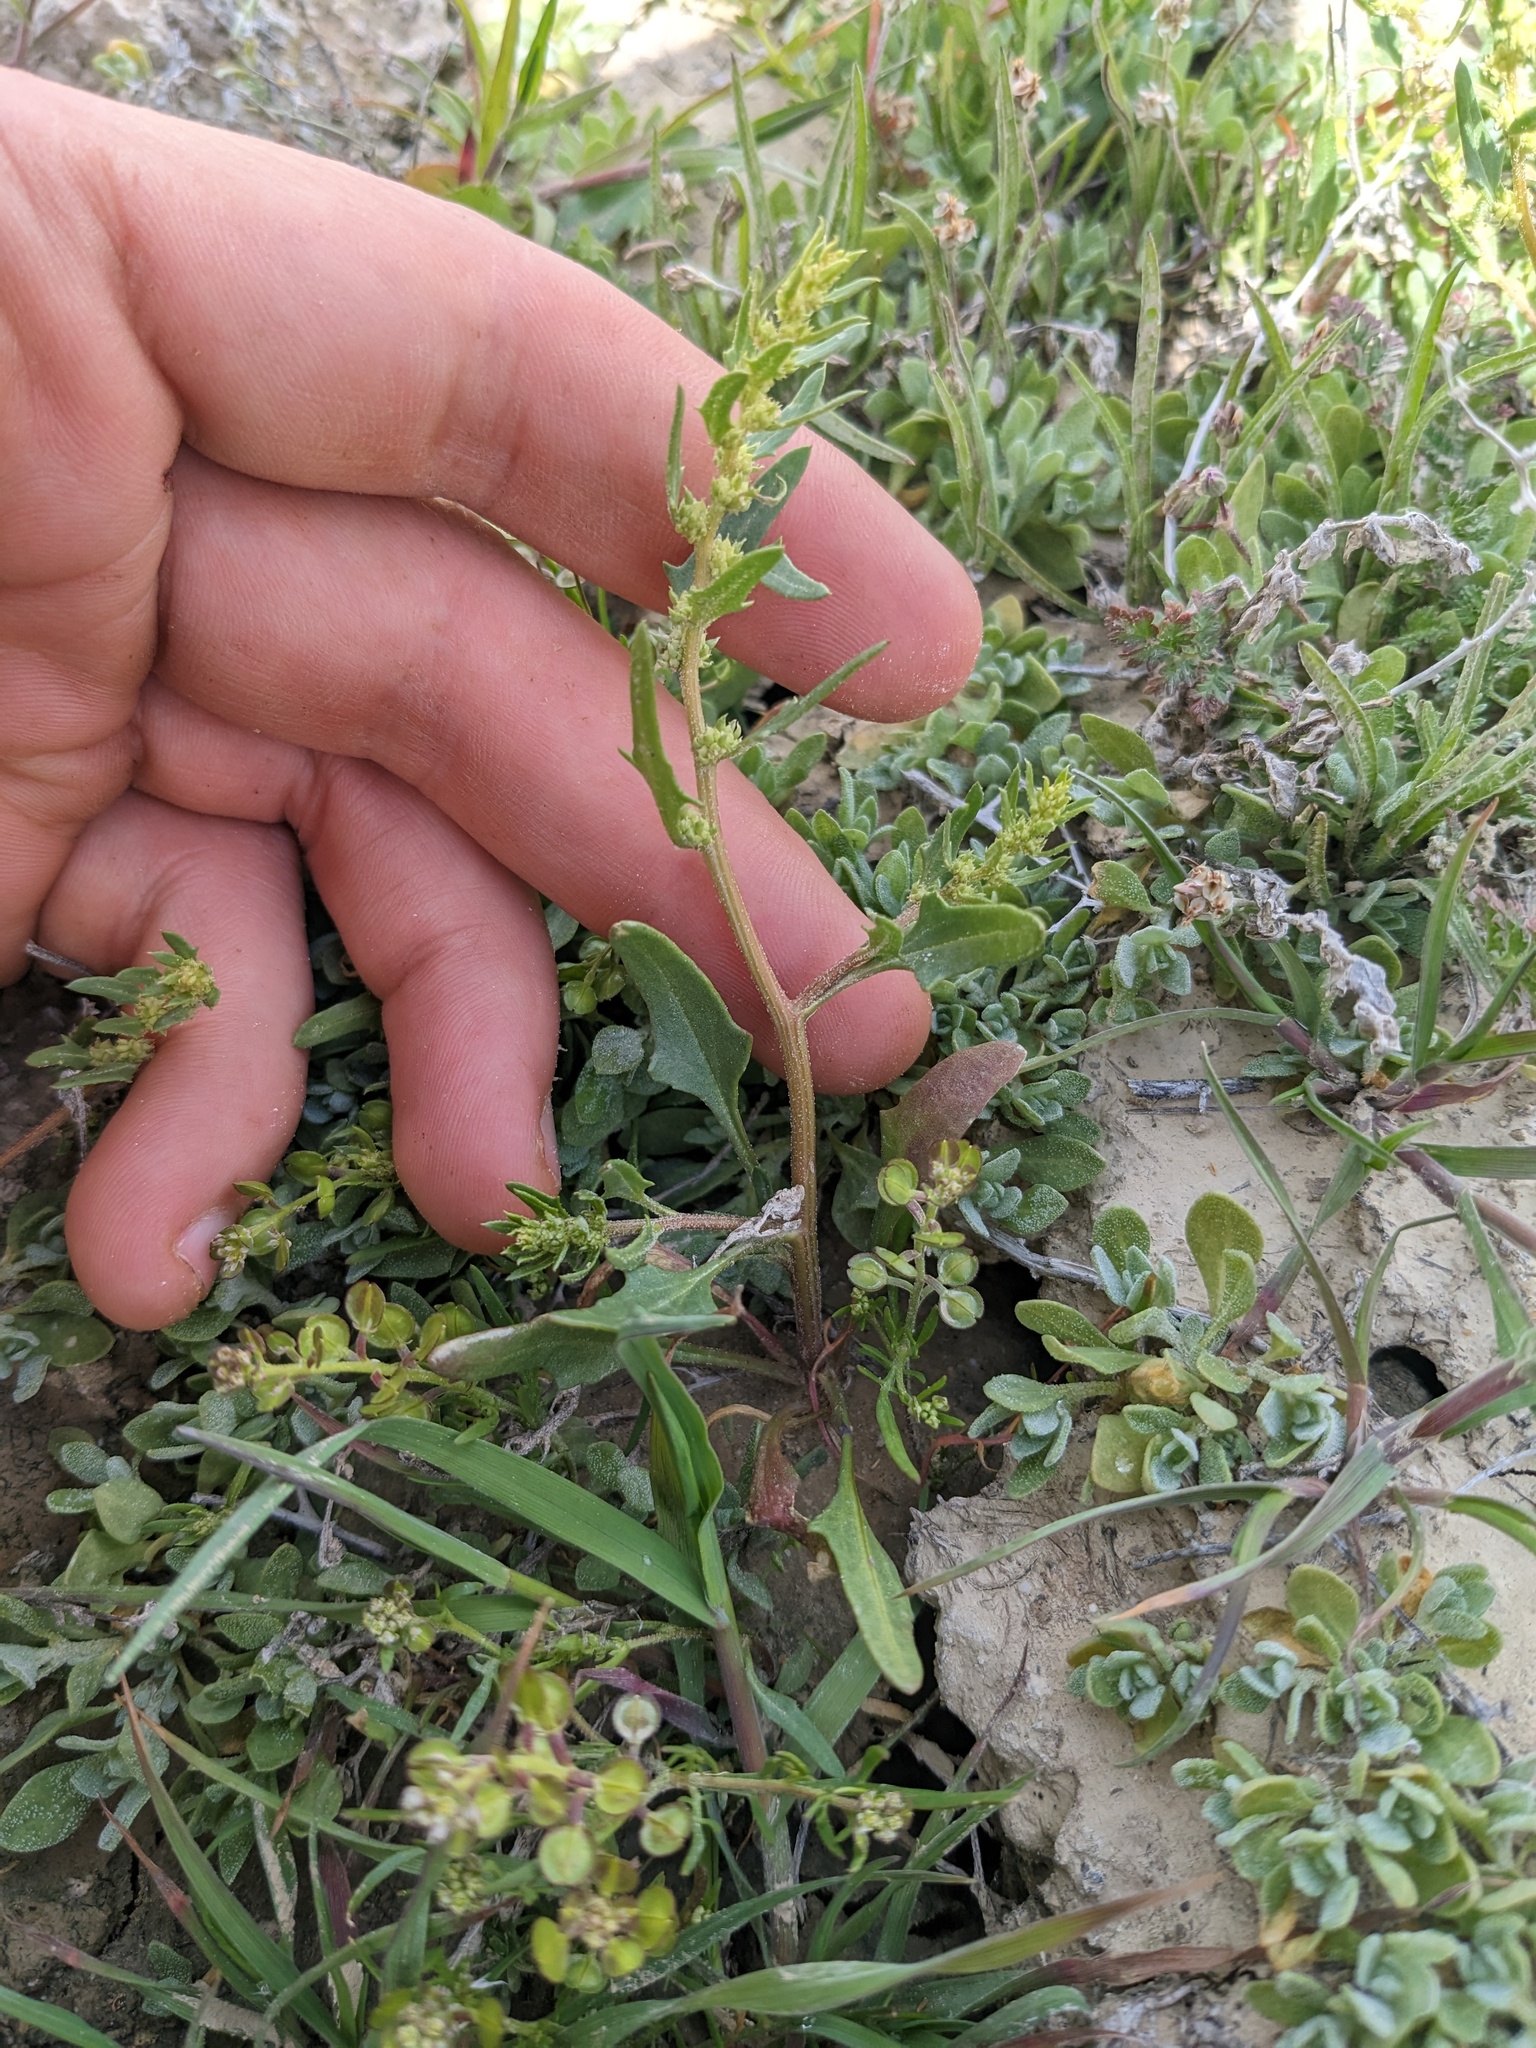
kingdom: Plantae
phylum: Tracheophyta
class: Magnoliopsida
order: Caryophyllales
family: Amaranthaceae
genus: Blitum
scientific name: Blitum nuttallianum
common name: Poverty-weed
